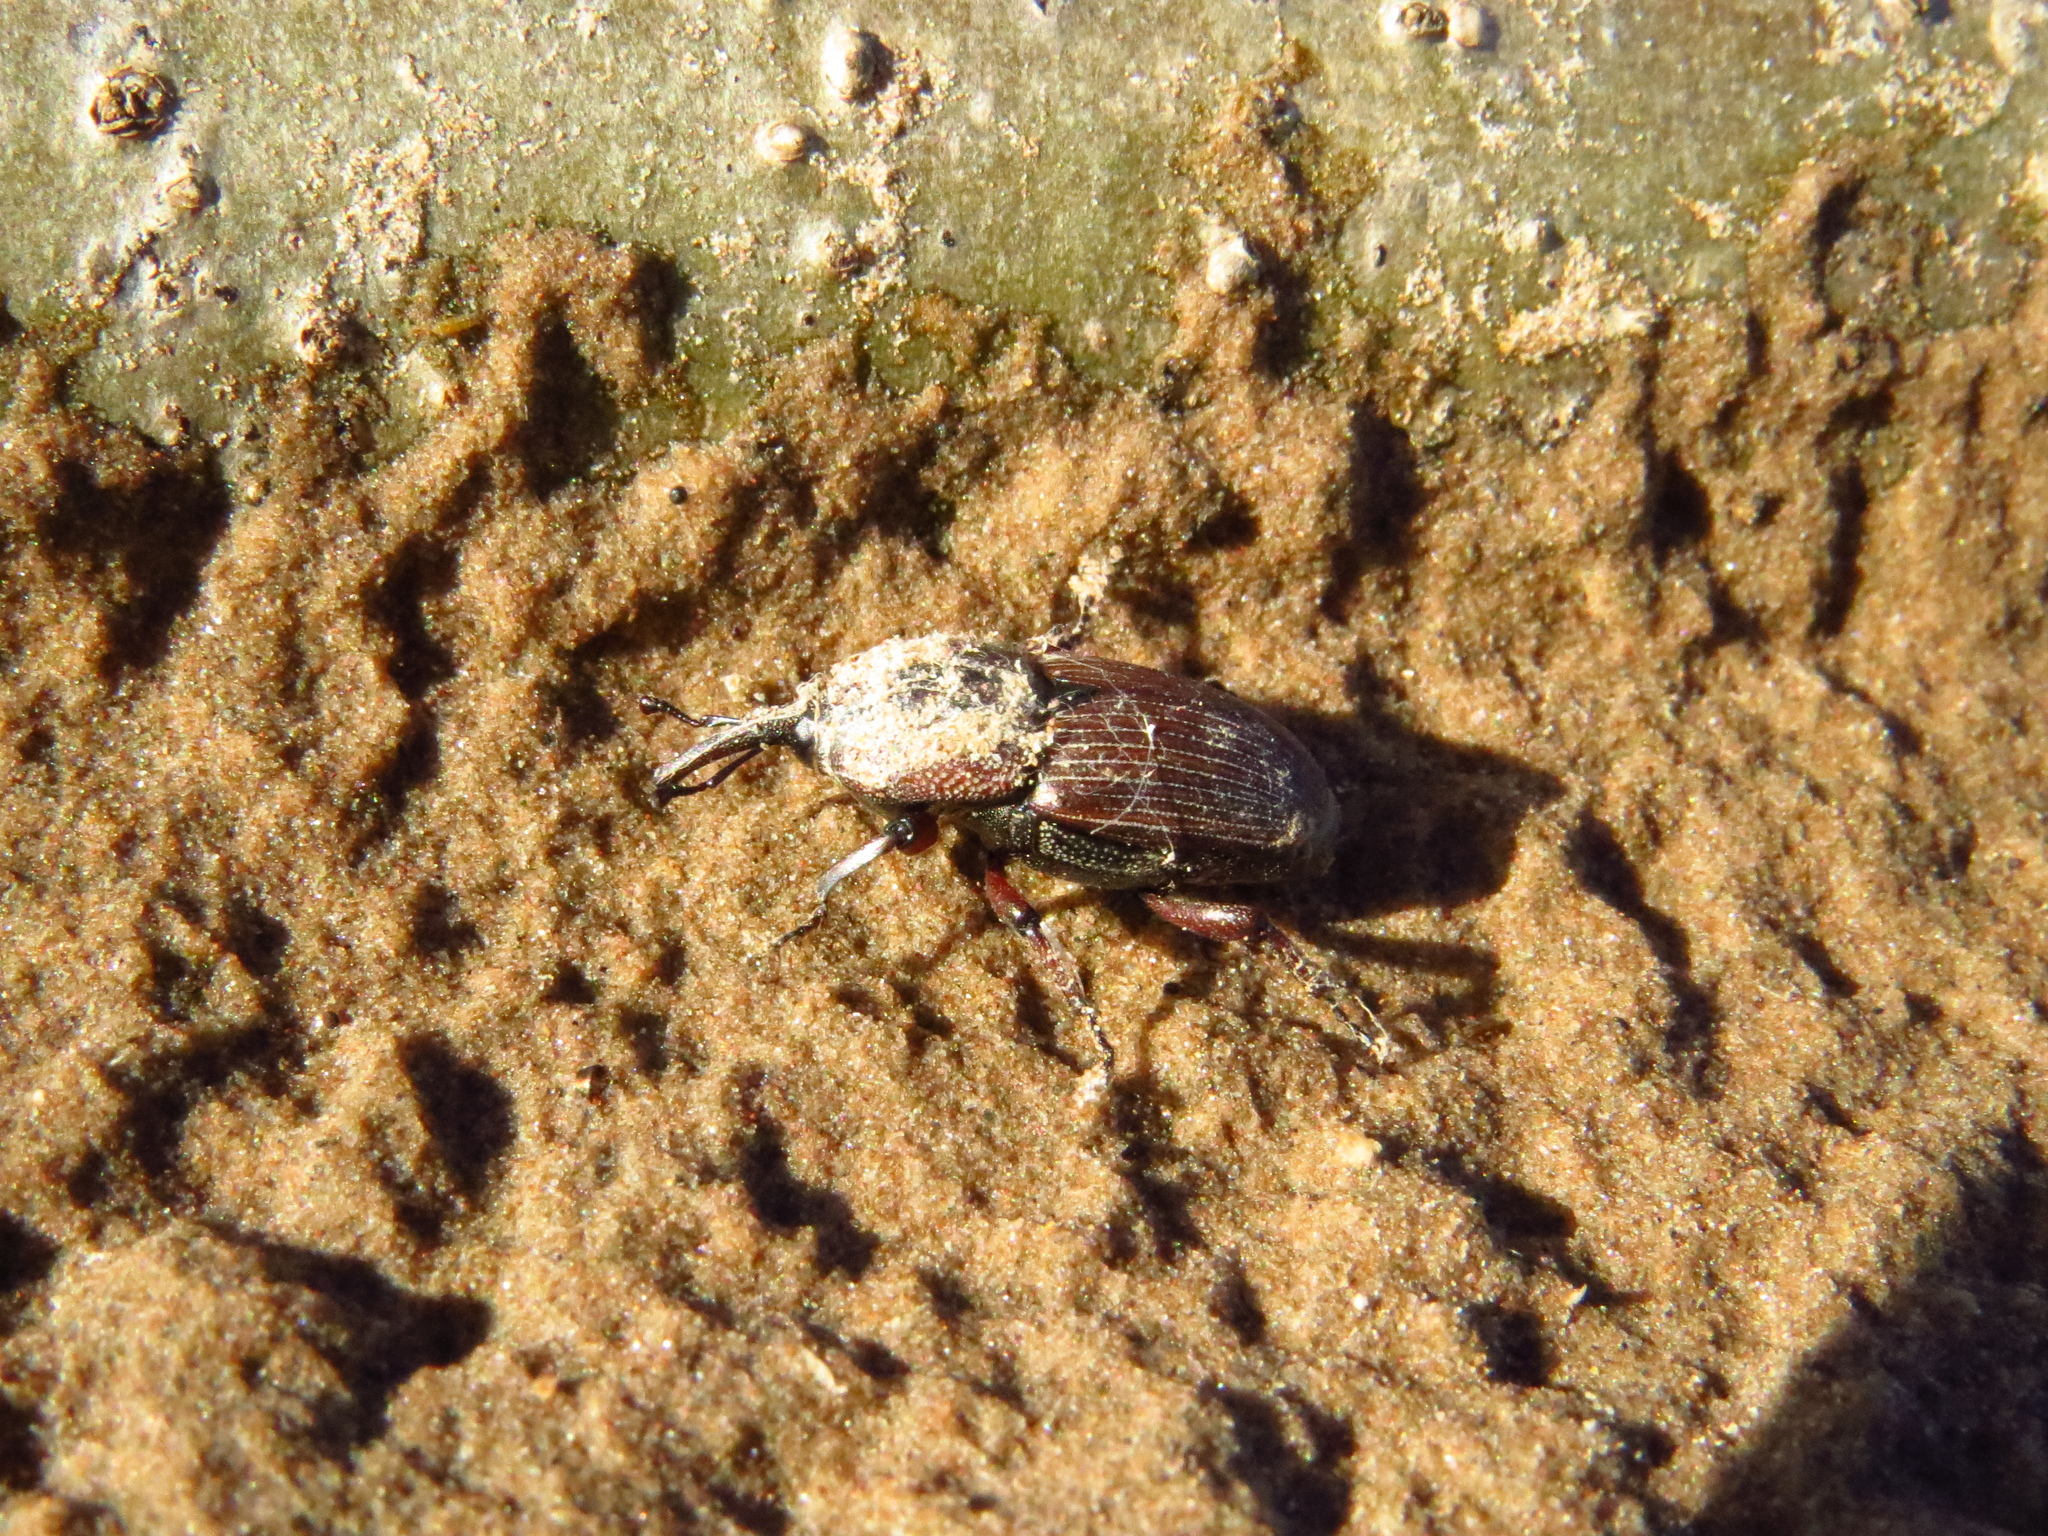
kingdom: Animalia
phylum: Arthropoda
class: Insecta
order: Coleoptera
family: Dryophthoridae
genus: Sphenophorus
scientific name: Sphenophorus brunnipennis
